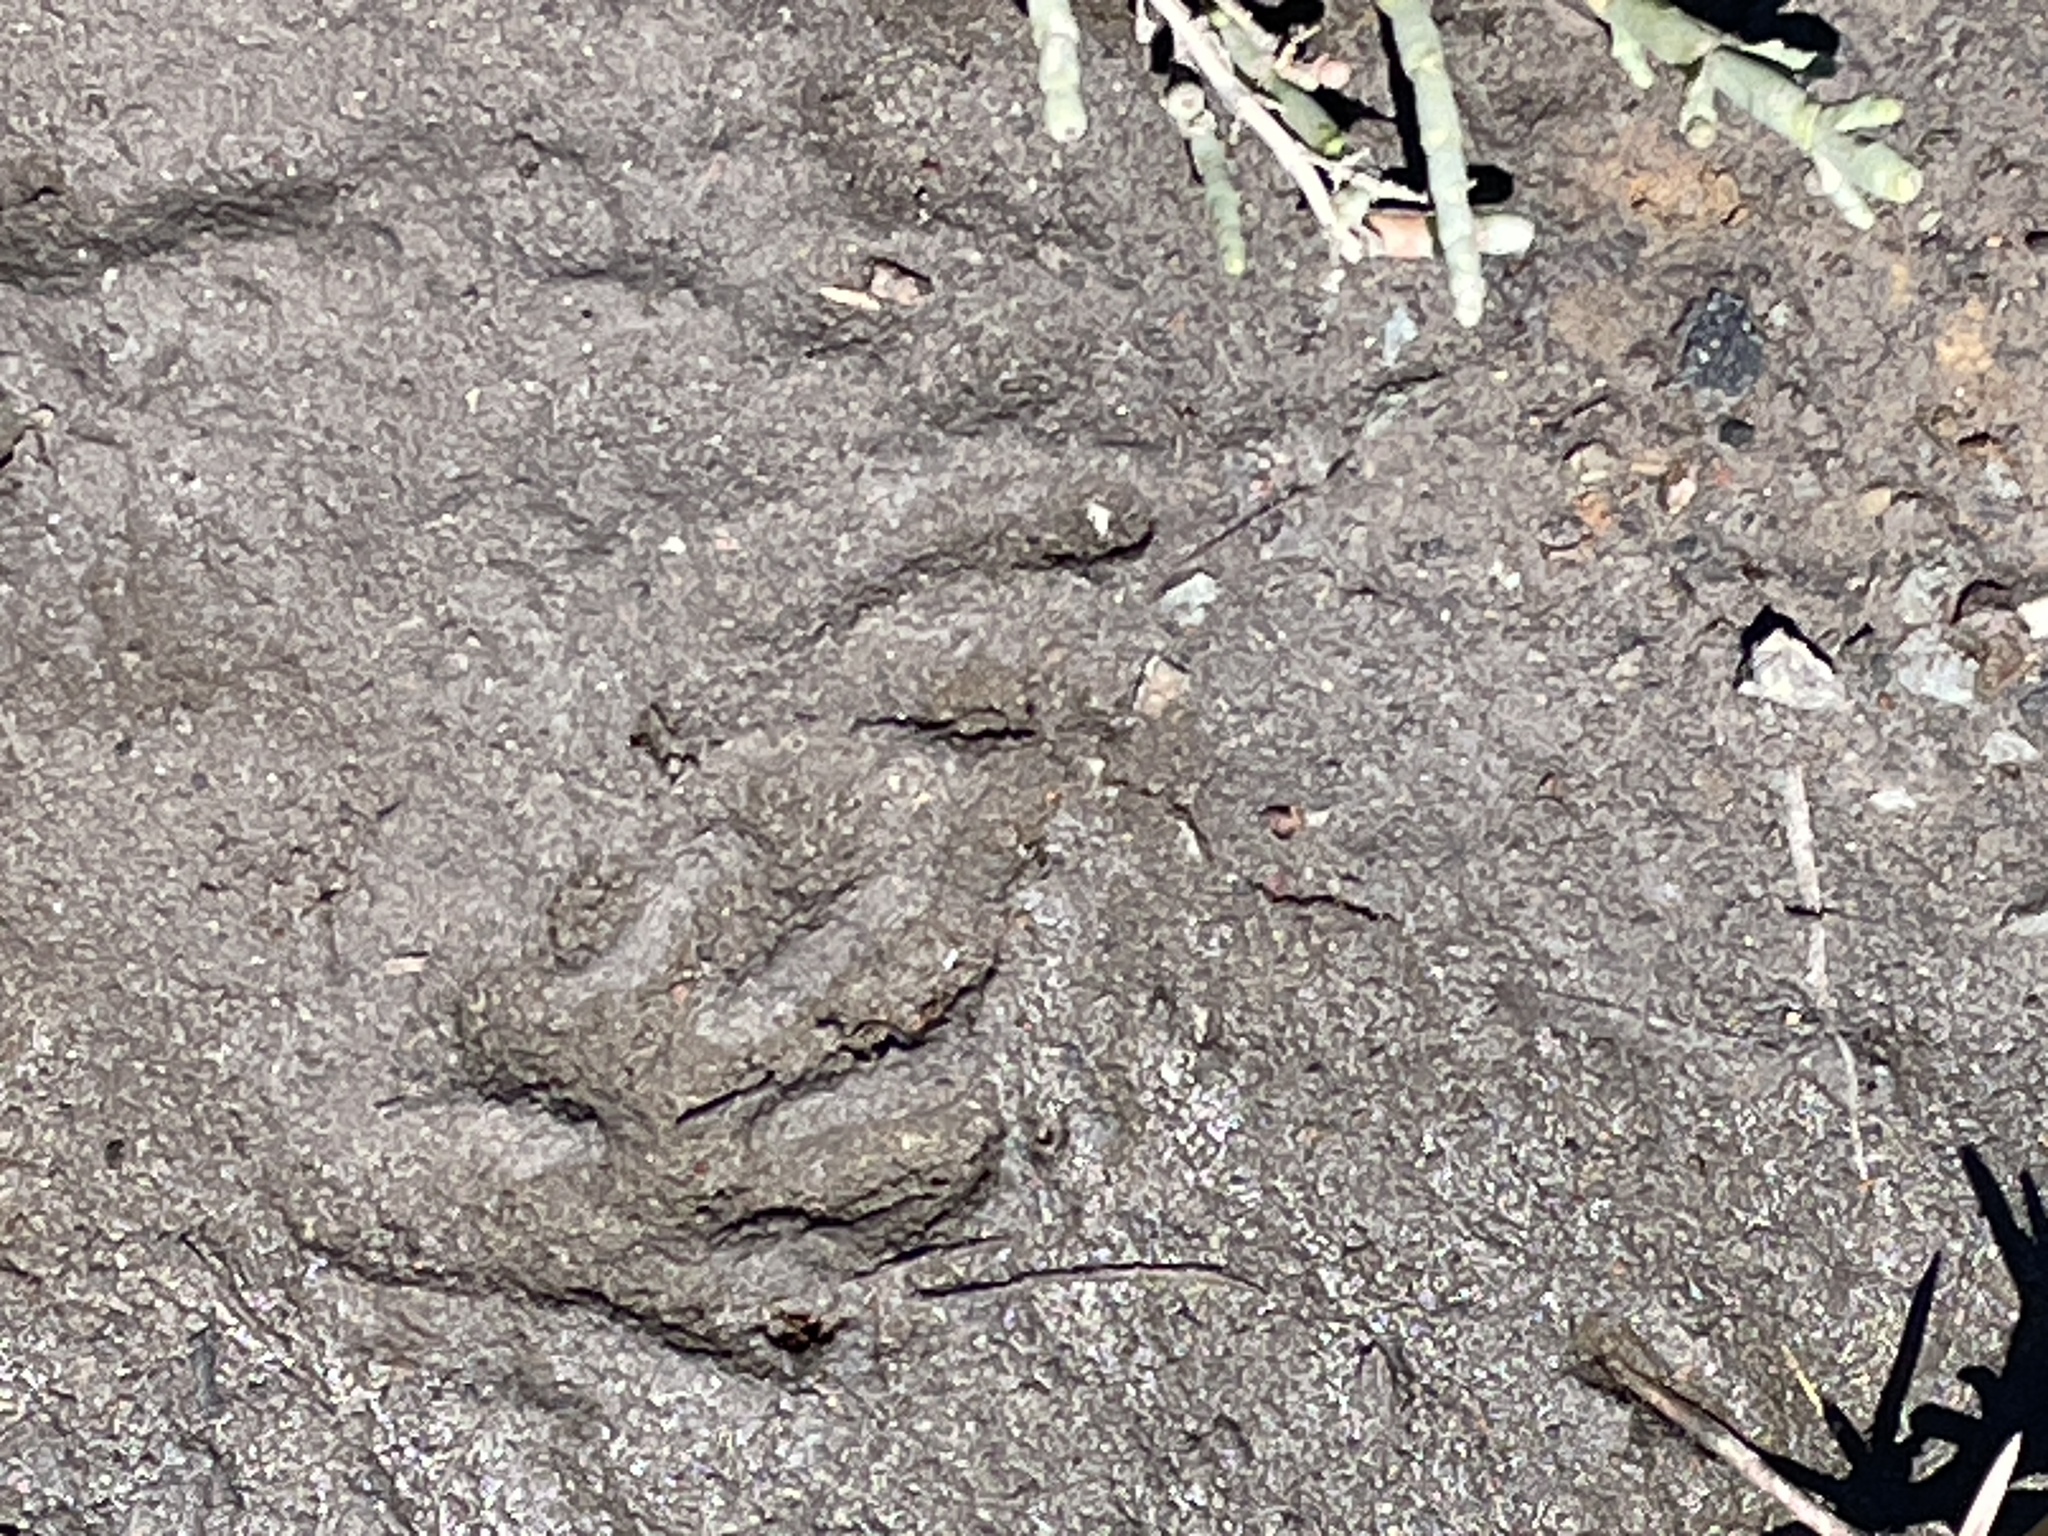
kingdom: Animalia
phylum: Chordata
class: Mammalia
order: Carnivora
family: Procyonidae
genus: Procyon
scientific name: Procyon lotor
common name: Raccoon
